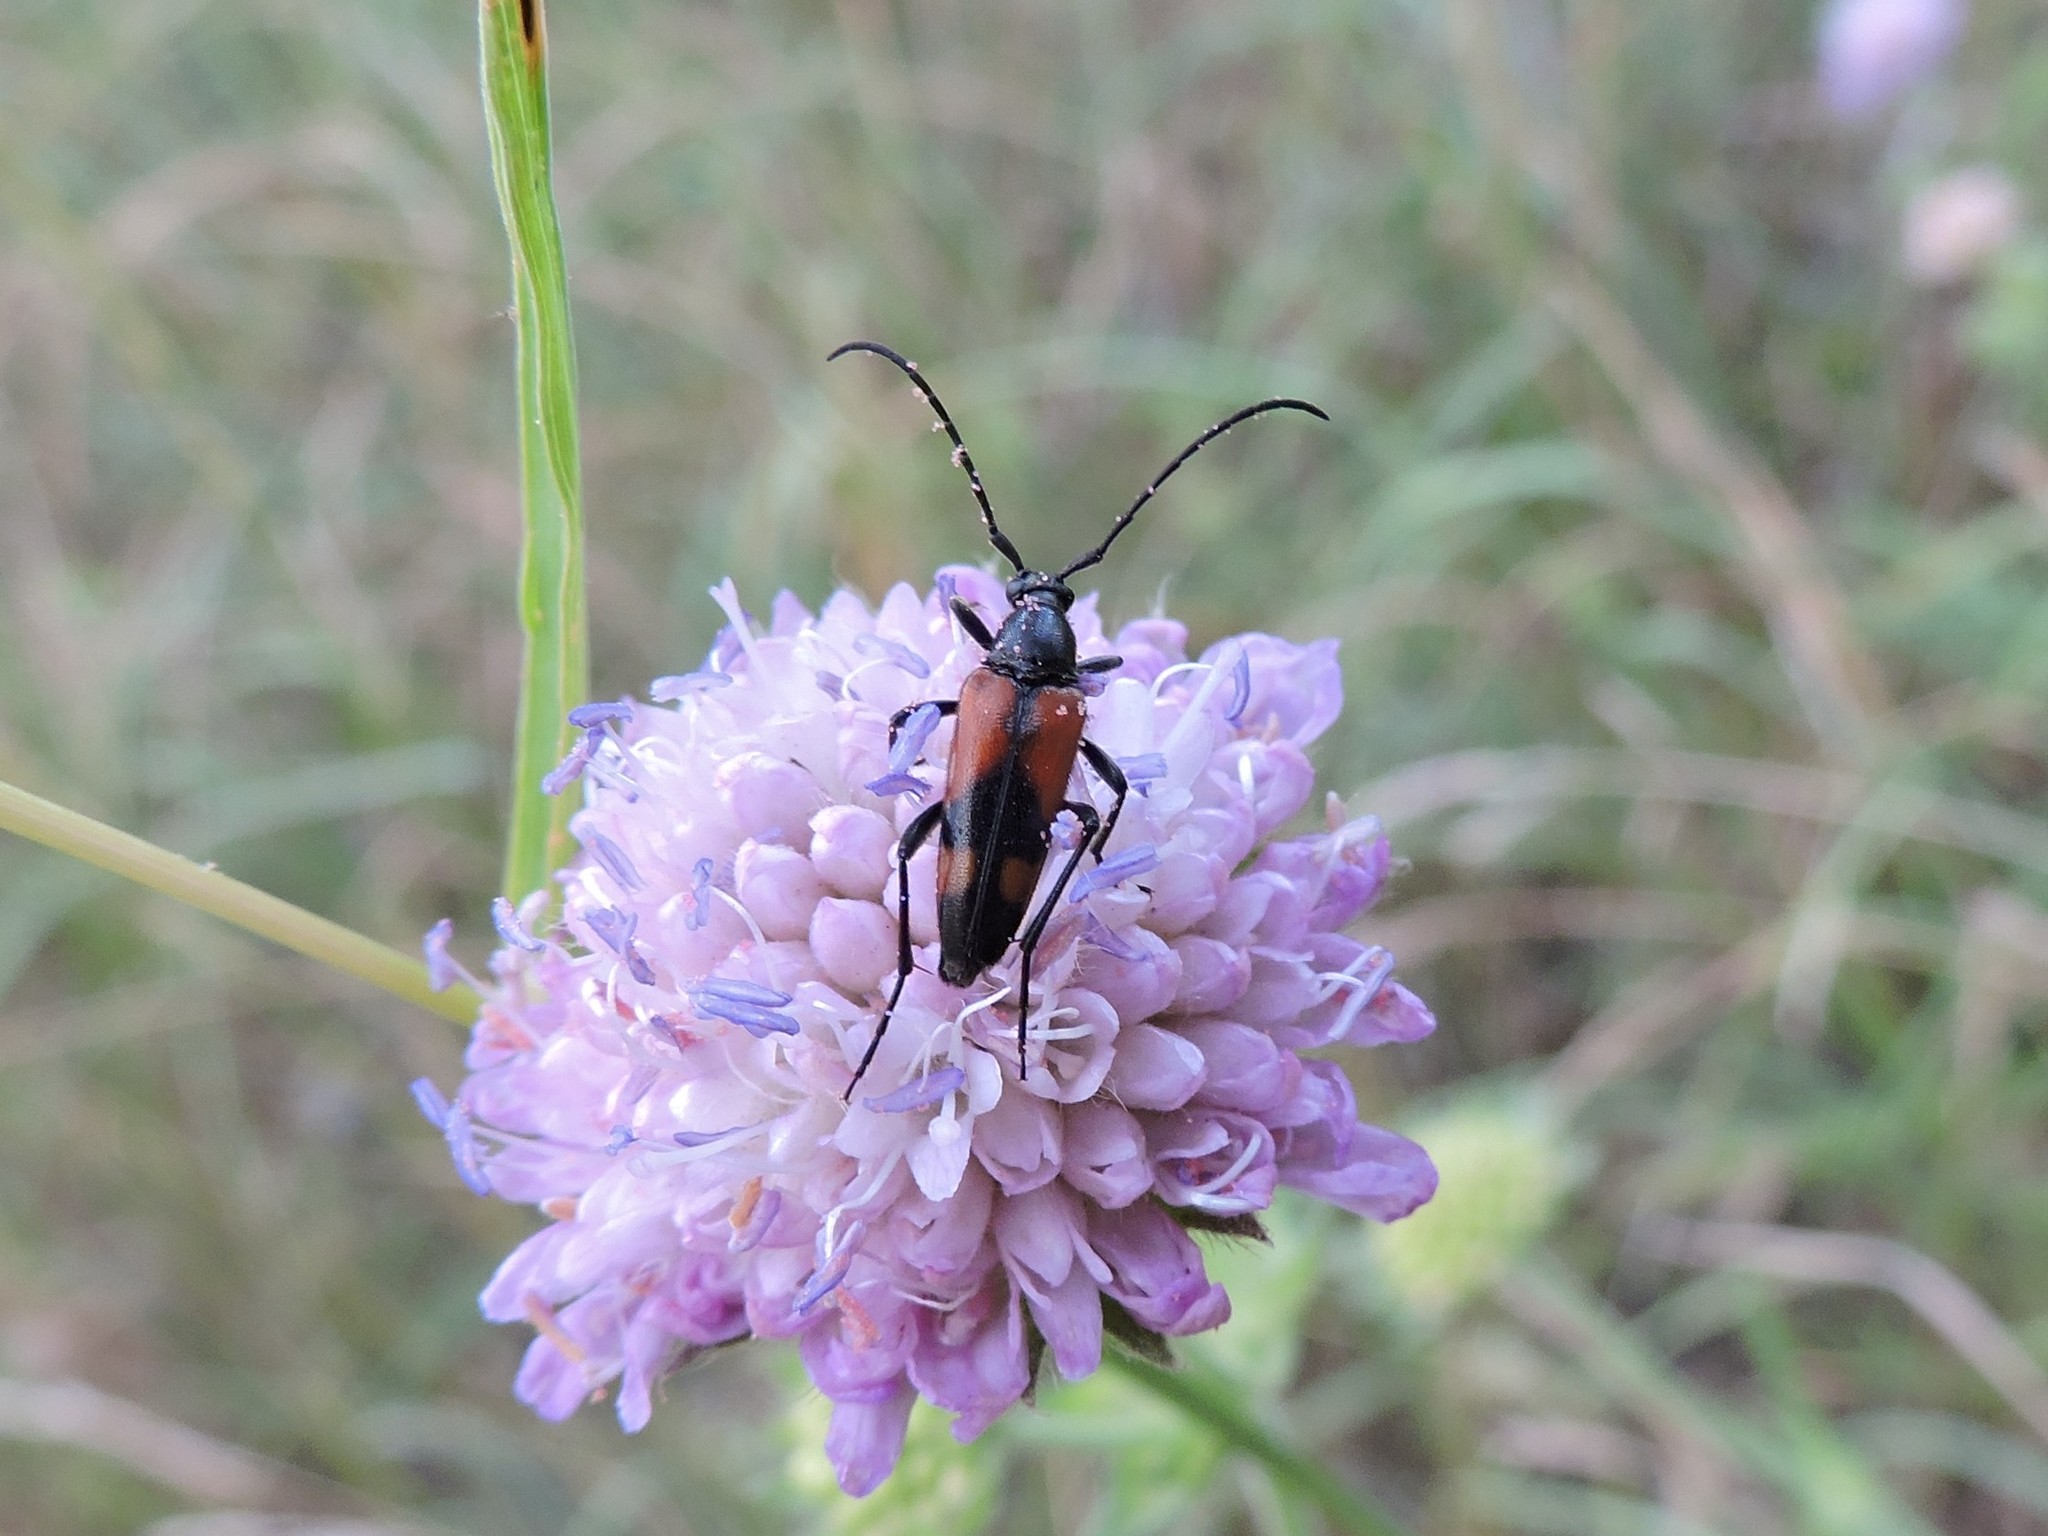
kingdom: Animalia
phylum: Arthropoda
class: Insecta
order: Coleoptera
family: Cerambycidae
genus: Stenurella
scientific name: Stenurella bifasciata
